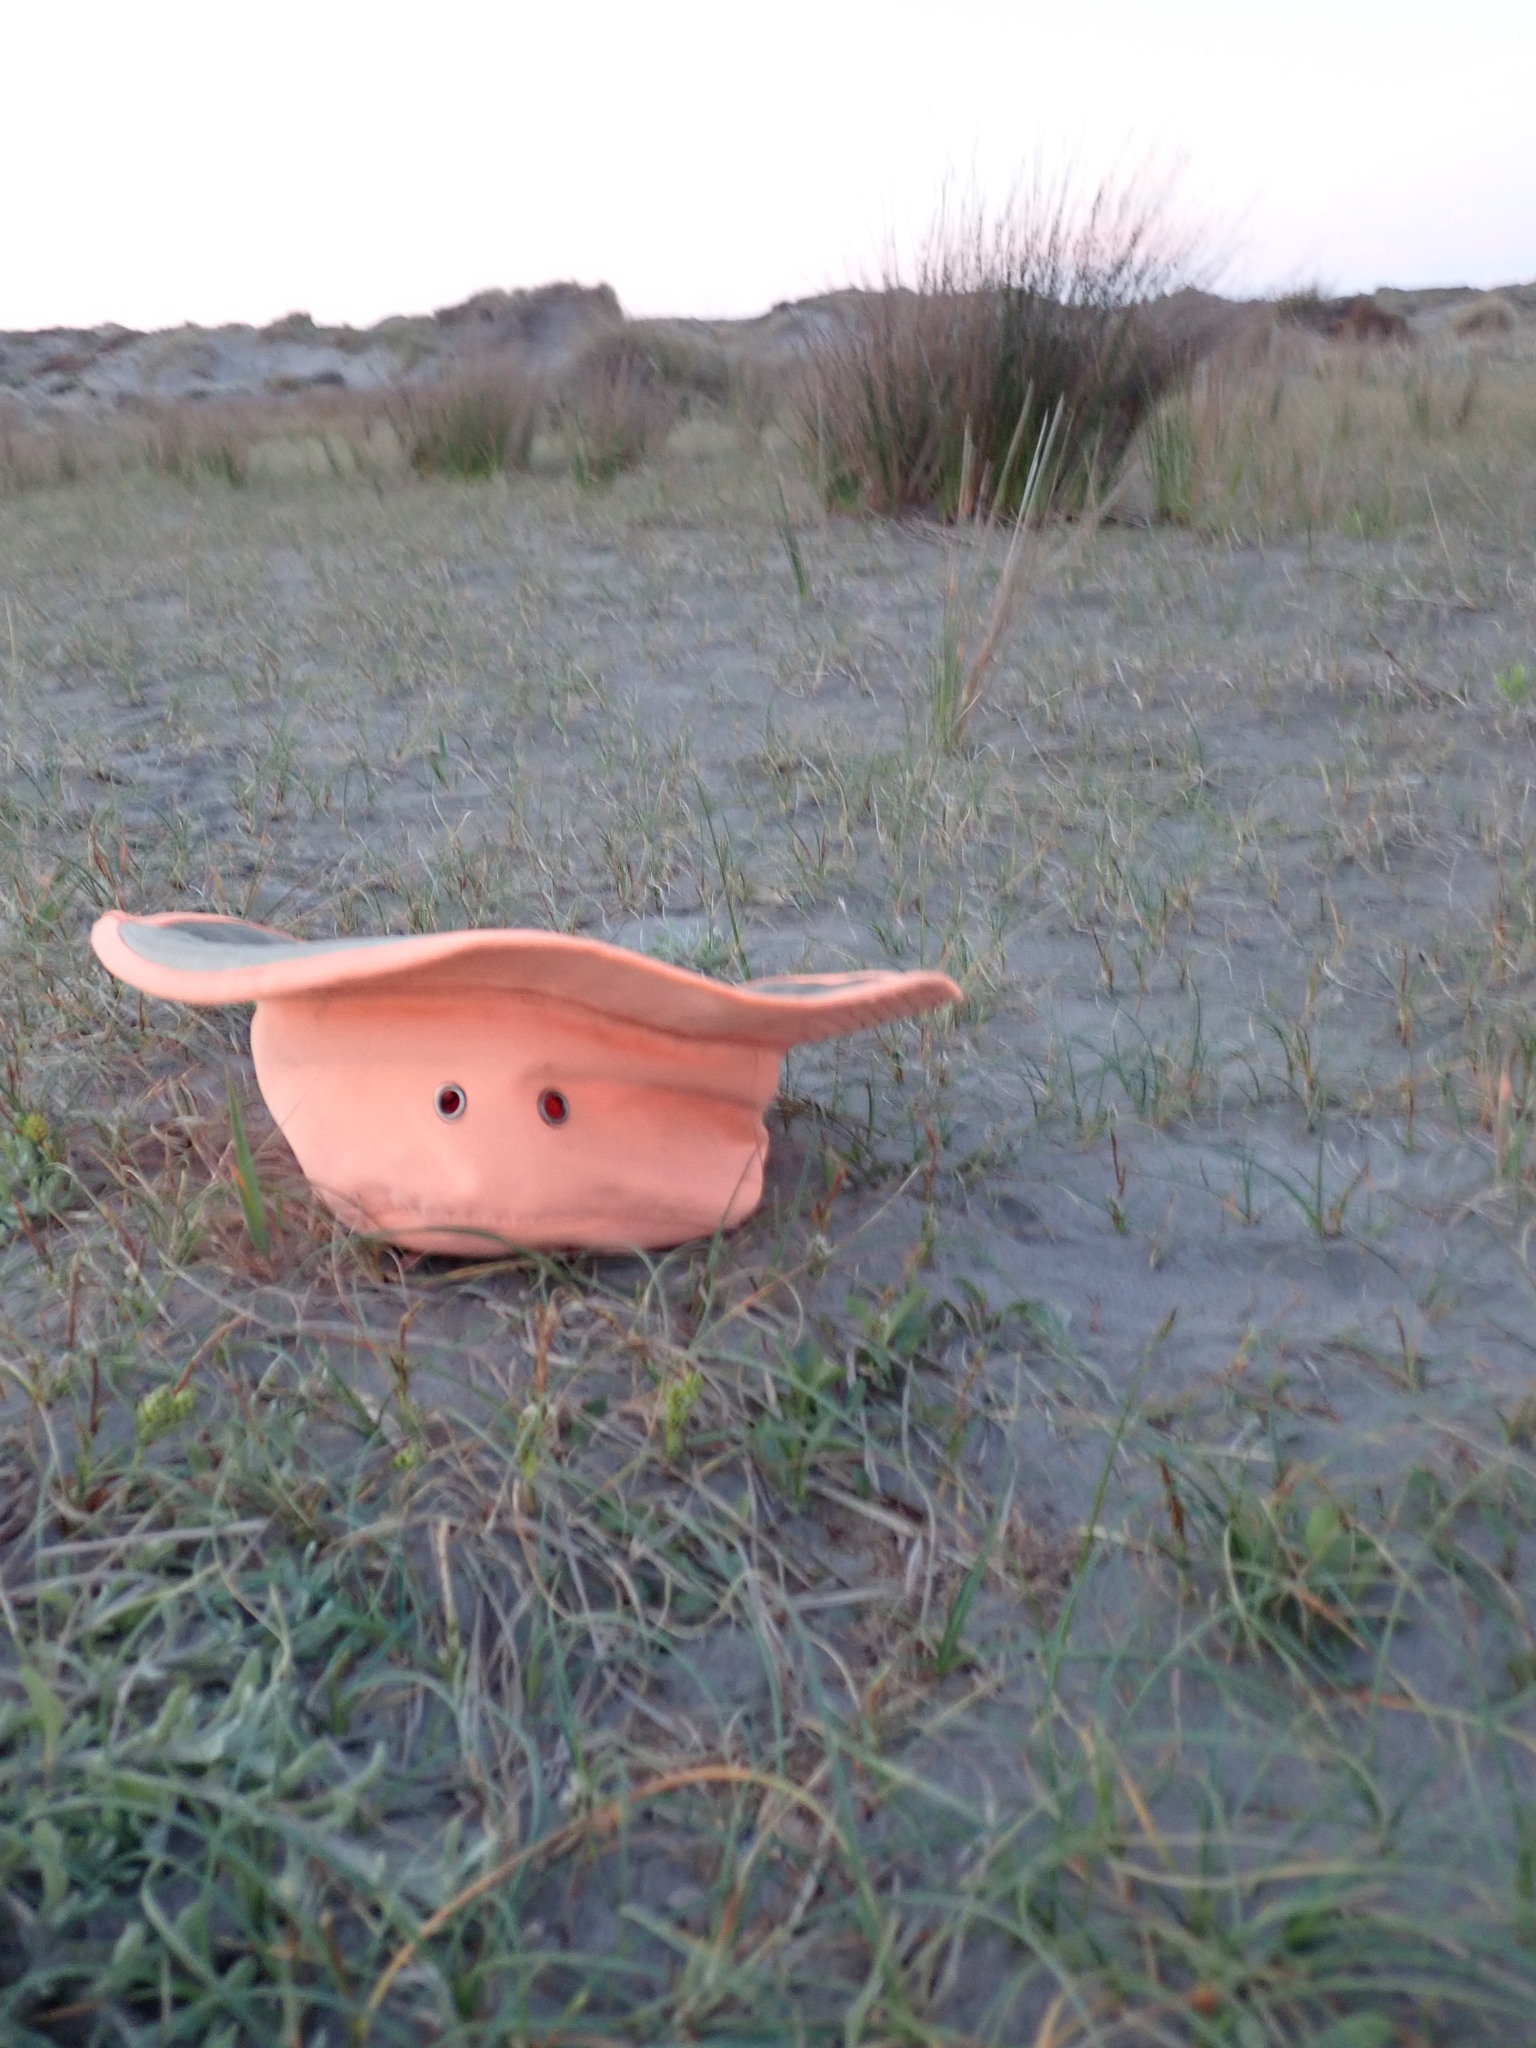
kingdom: Plantae
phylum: Tracheophyta
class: Liliopsida
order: Poales
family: Cyperaceae
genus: Carex
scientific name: Carex pumila
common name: Dwarf sedge
